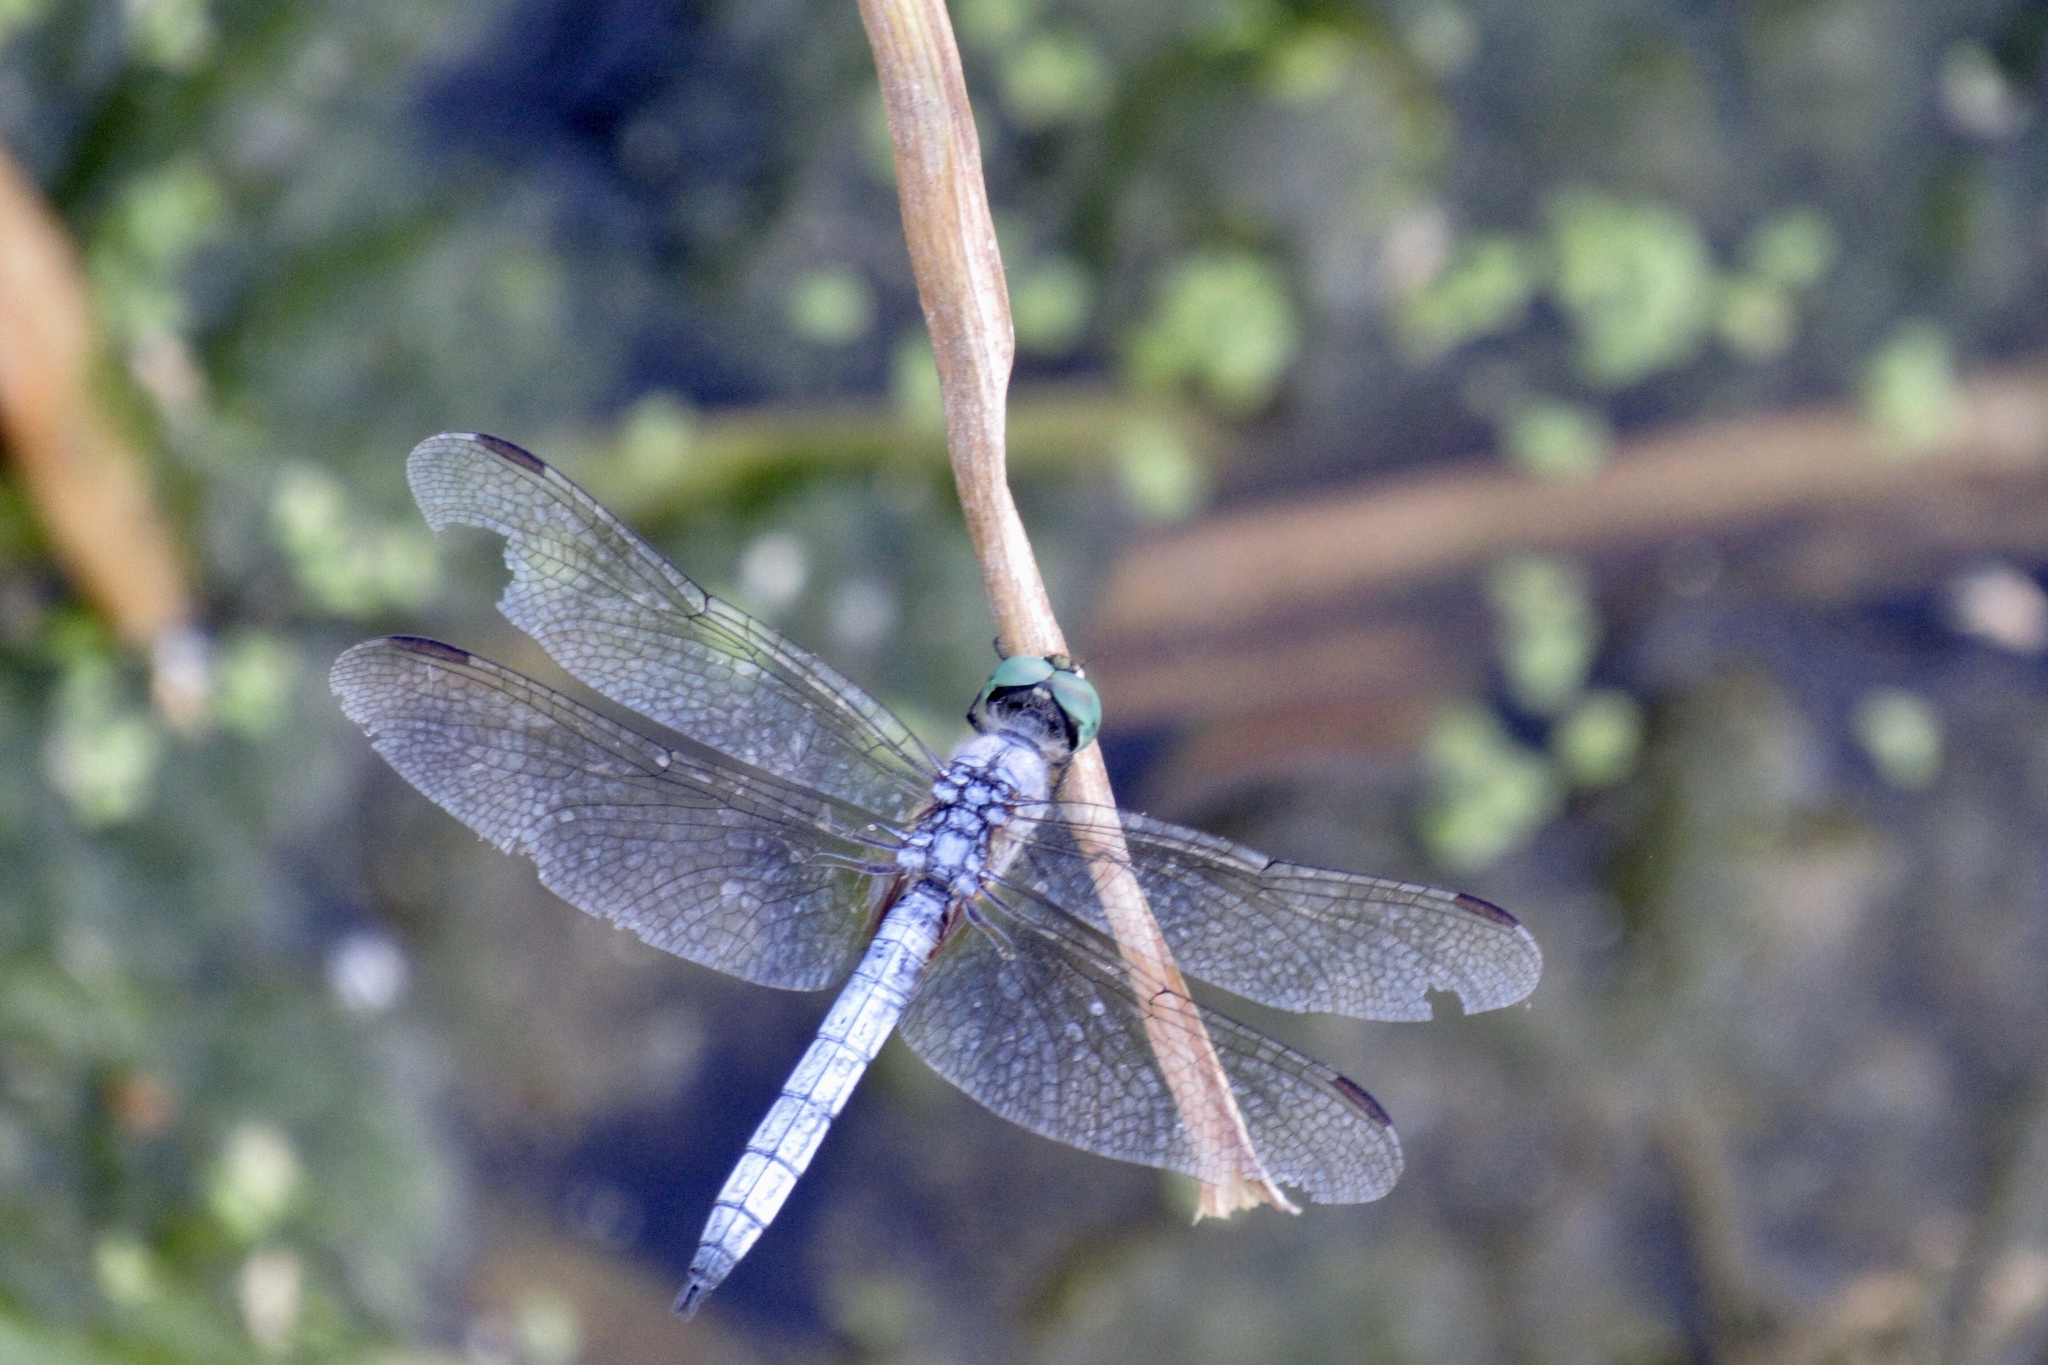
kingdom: Animalia
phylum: Arthropoda
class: Insecta
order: Odonata
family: Libellulidae
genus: Pachydiplax
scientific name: Pachydiplax longipennis
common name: Blue dasher
